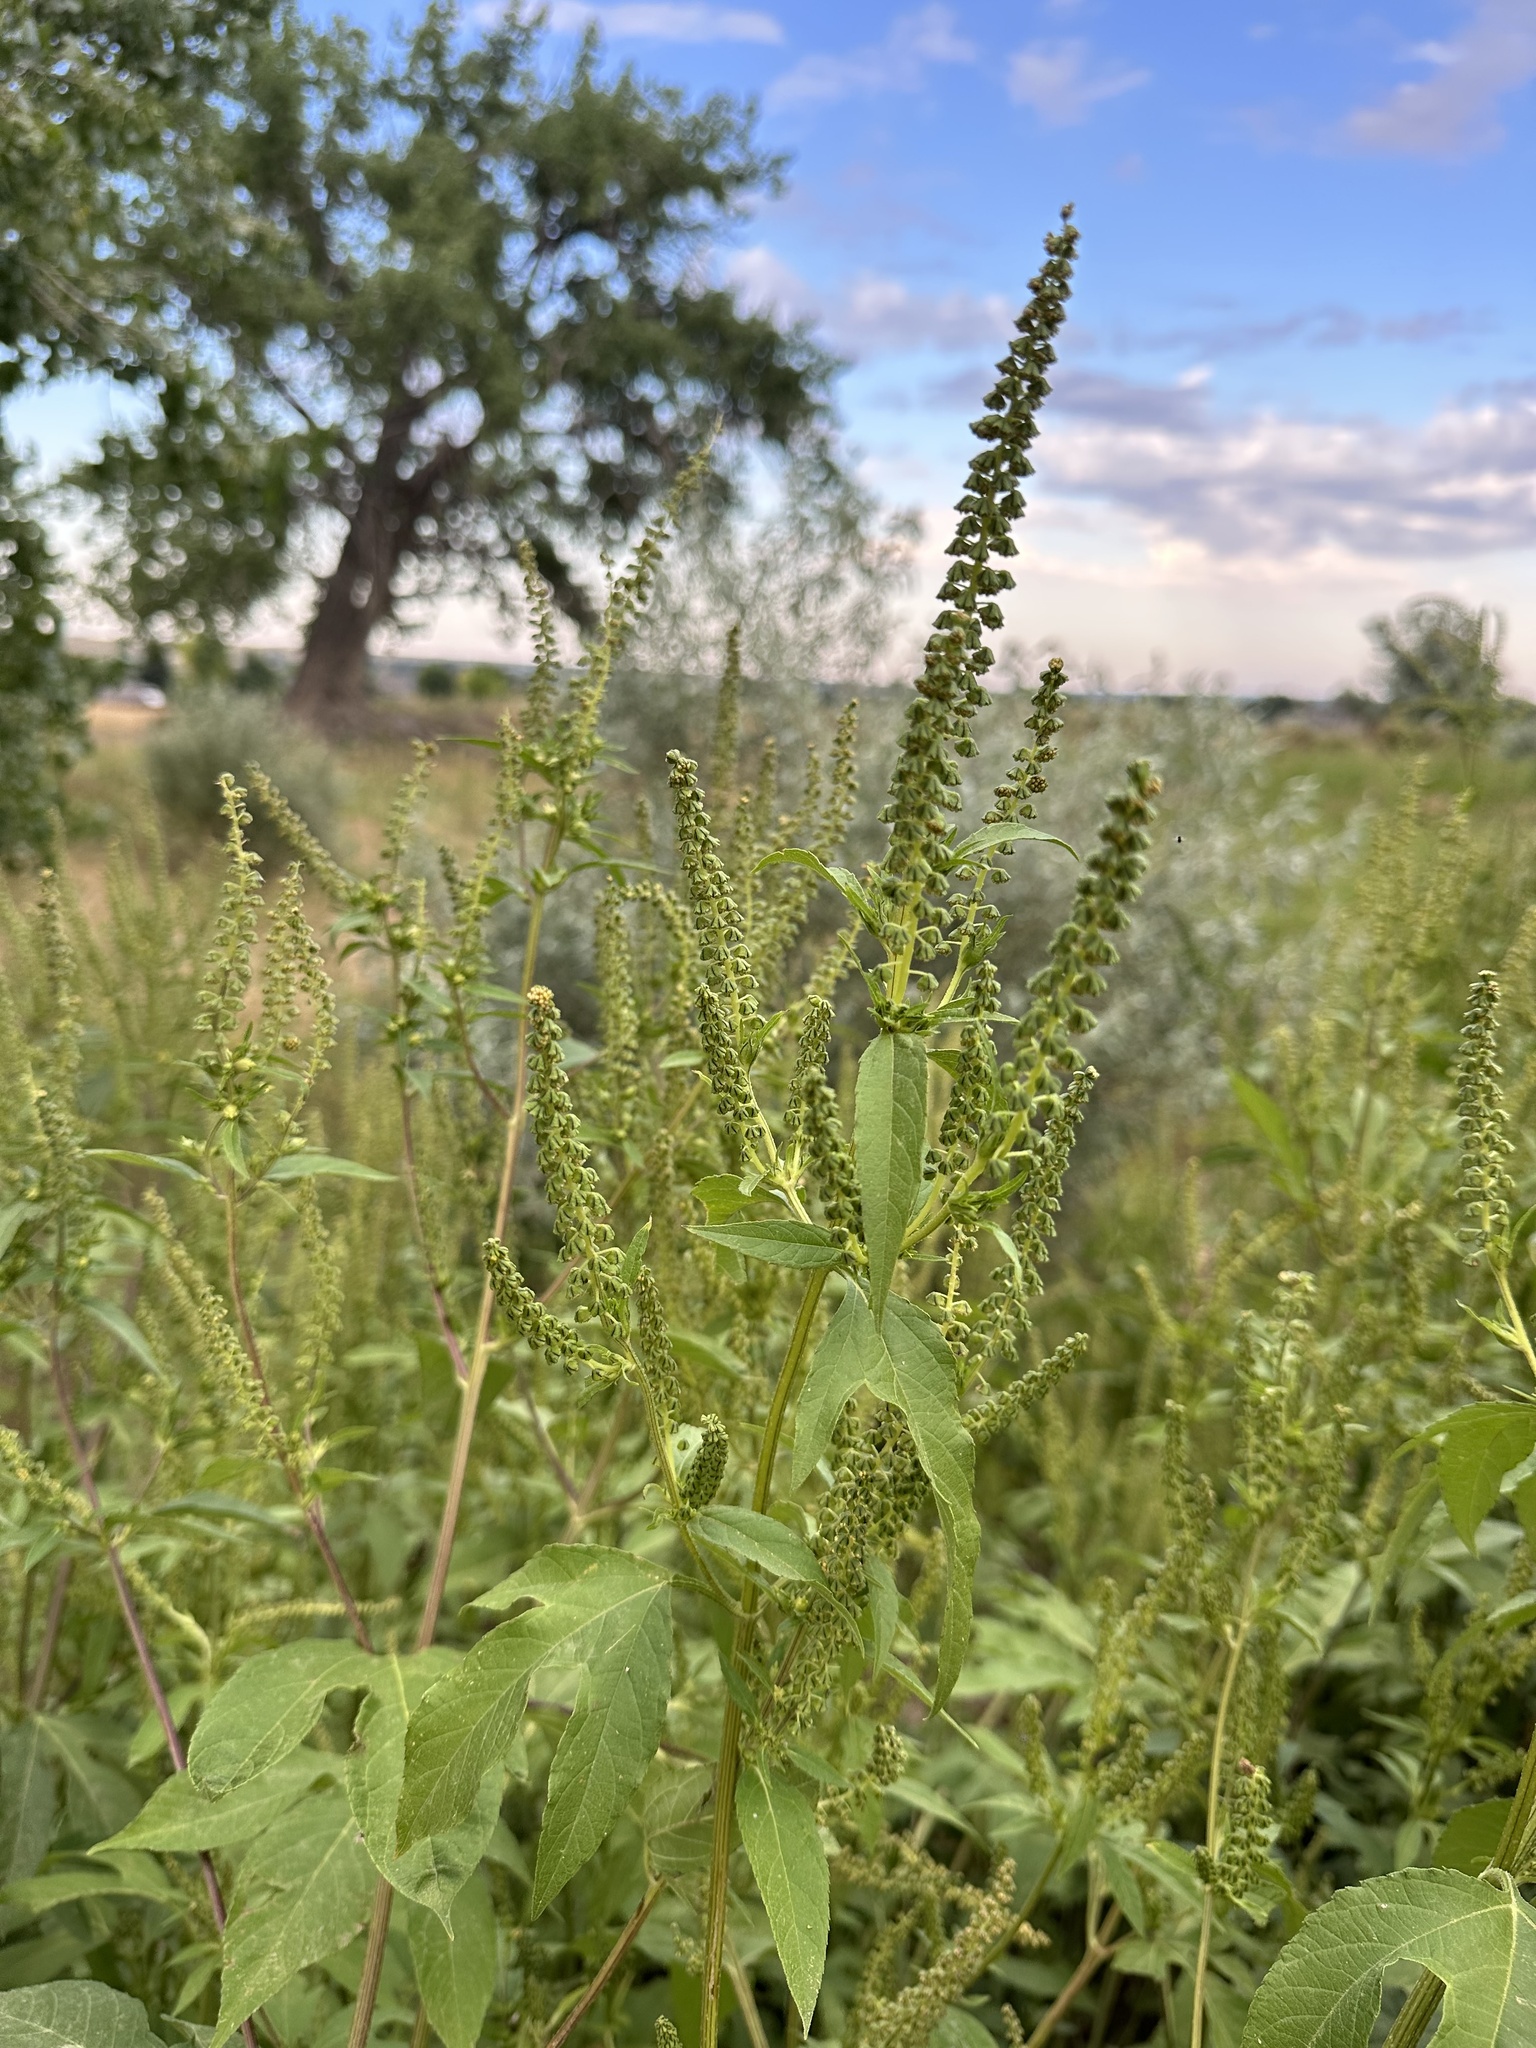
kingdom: Plantae
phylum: Tracheophyta
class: Magnoliopsida
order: Asterales
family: Asteraceae
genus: Ambrosia
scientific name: Ambrosia trifida
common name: Giant ragweed
